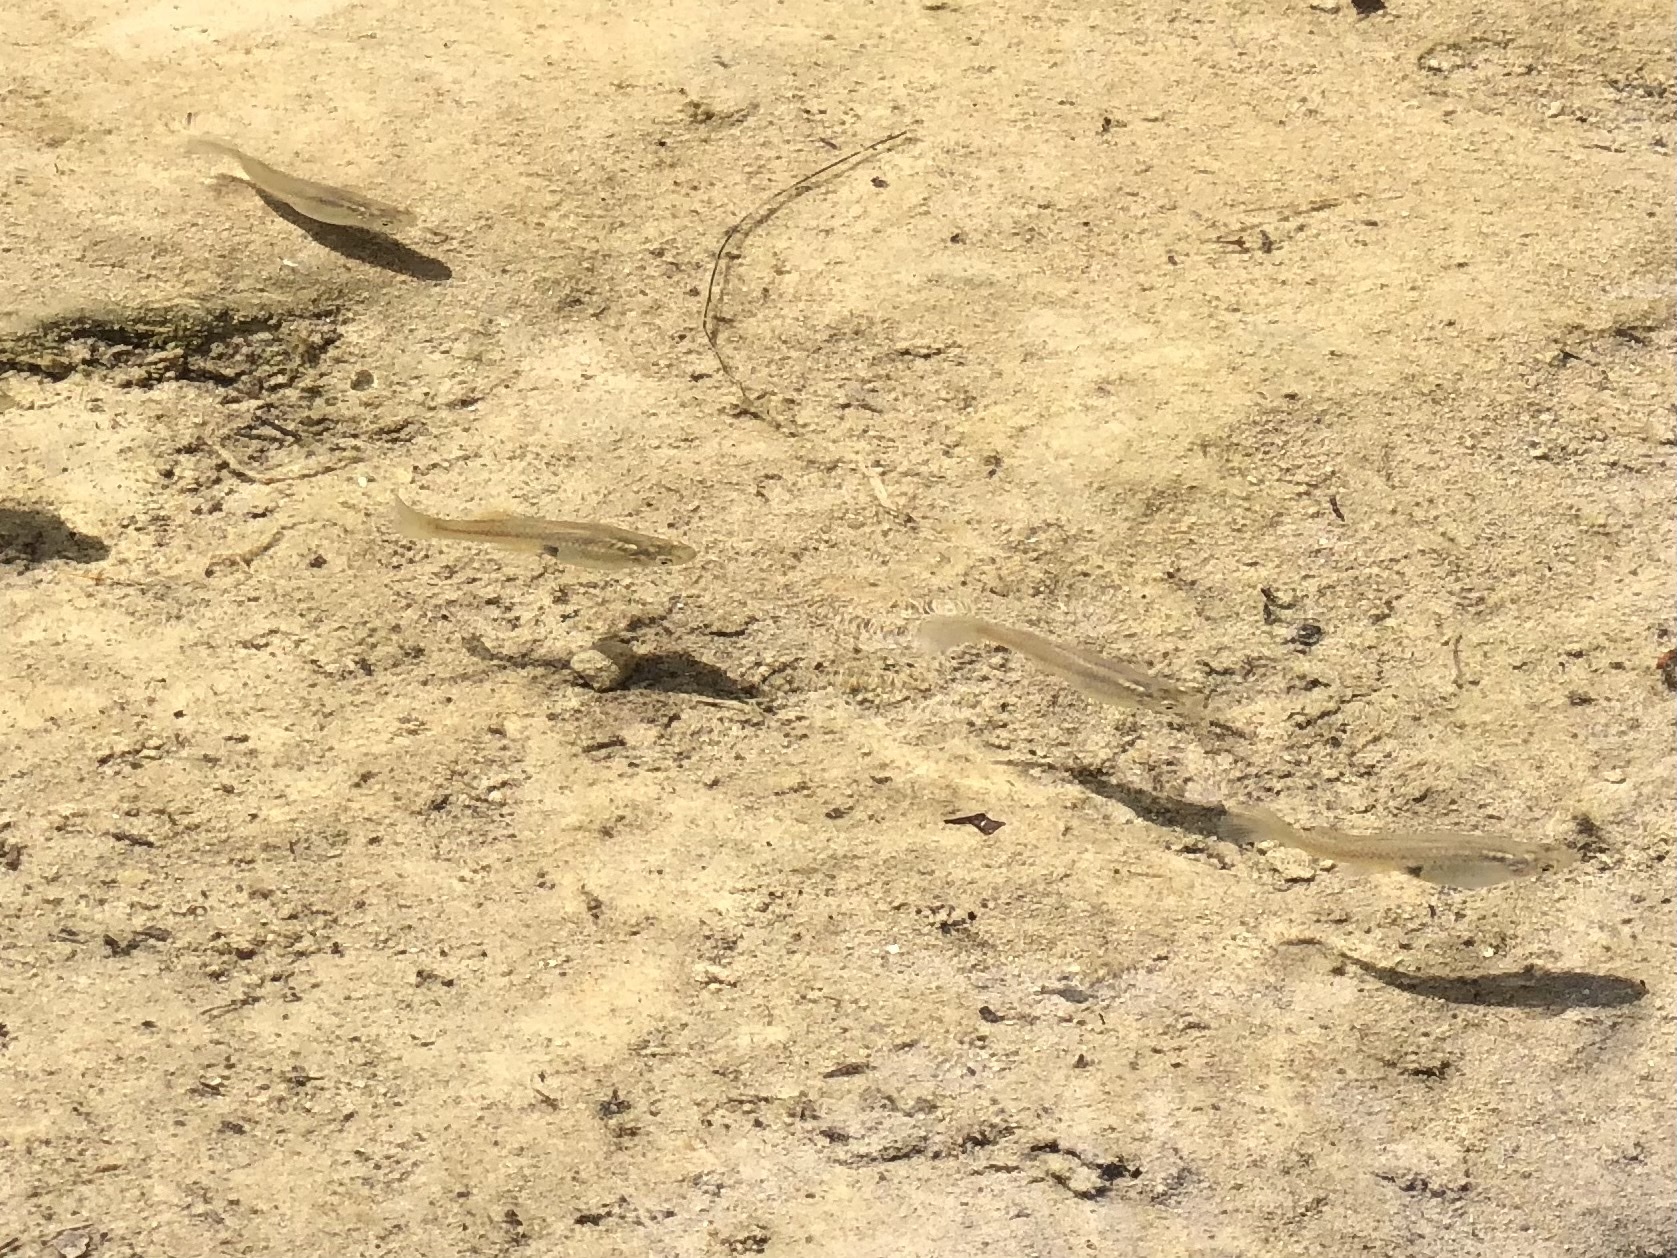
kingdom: Animalia
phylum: Chordata
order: Cyprinodontiformes
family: Poeciliidae
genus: Gambusia
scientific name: Gambusia affinis
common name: Mosquitofish
